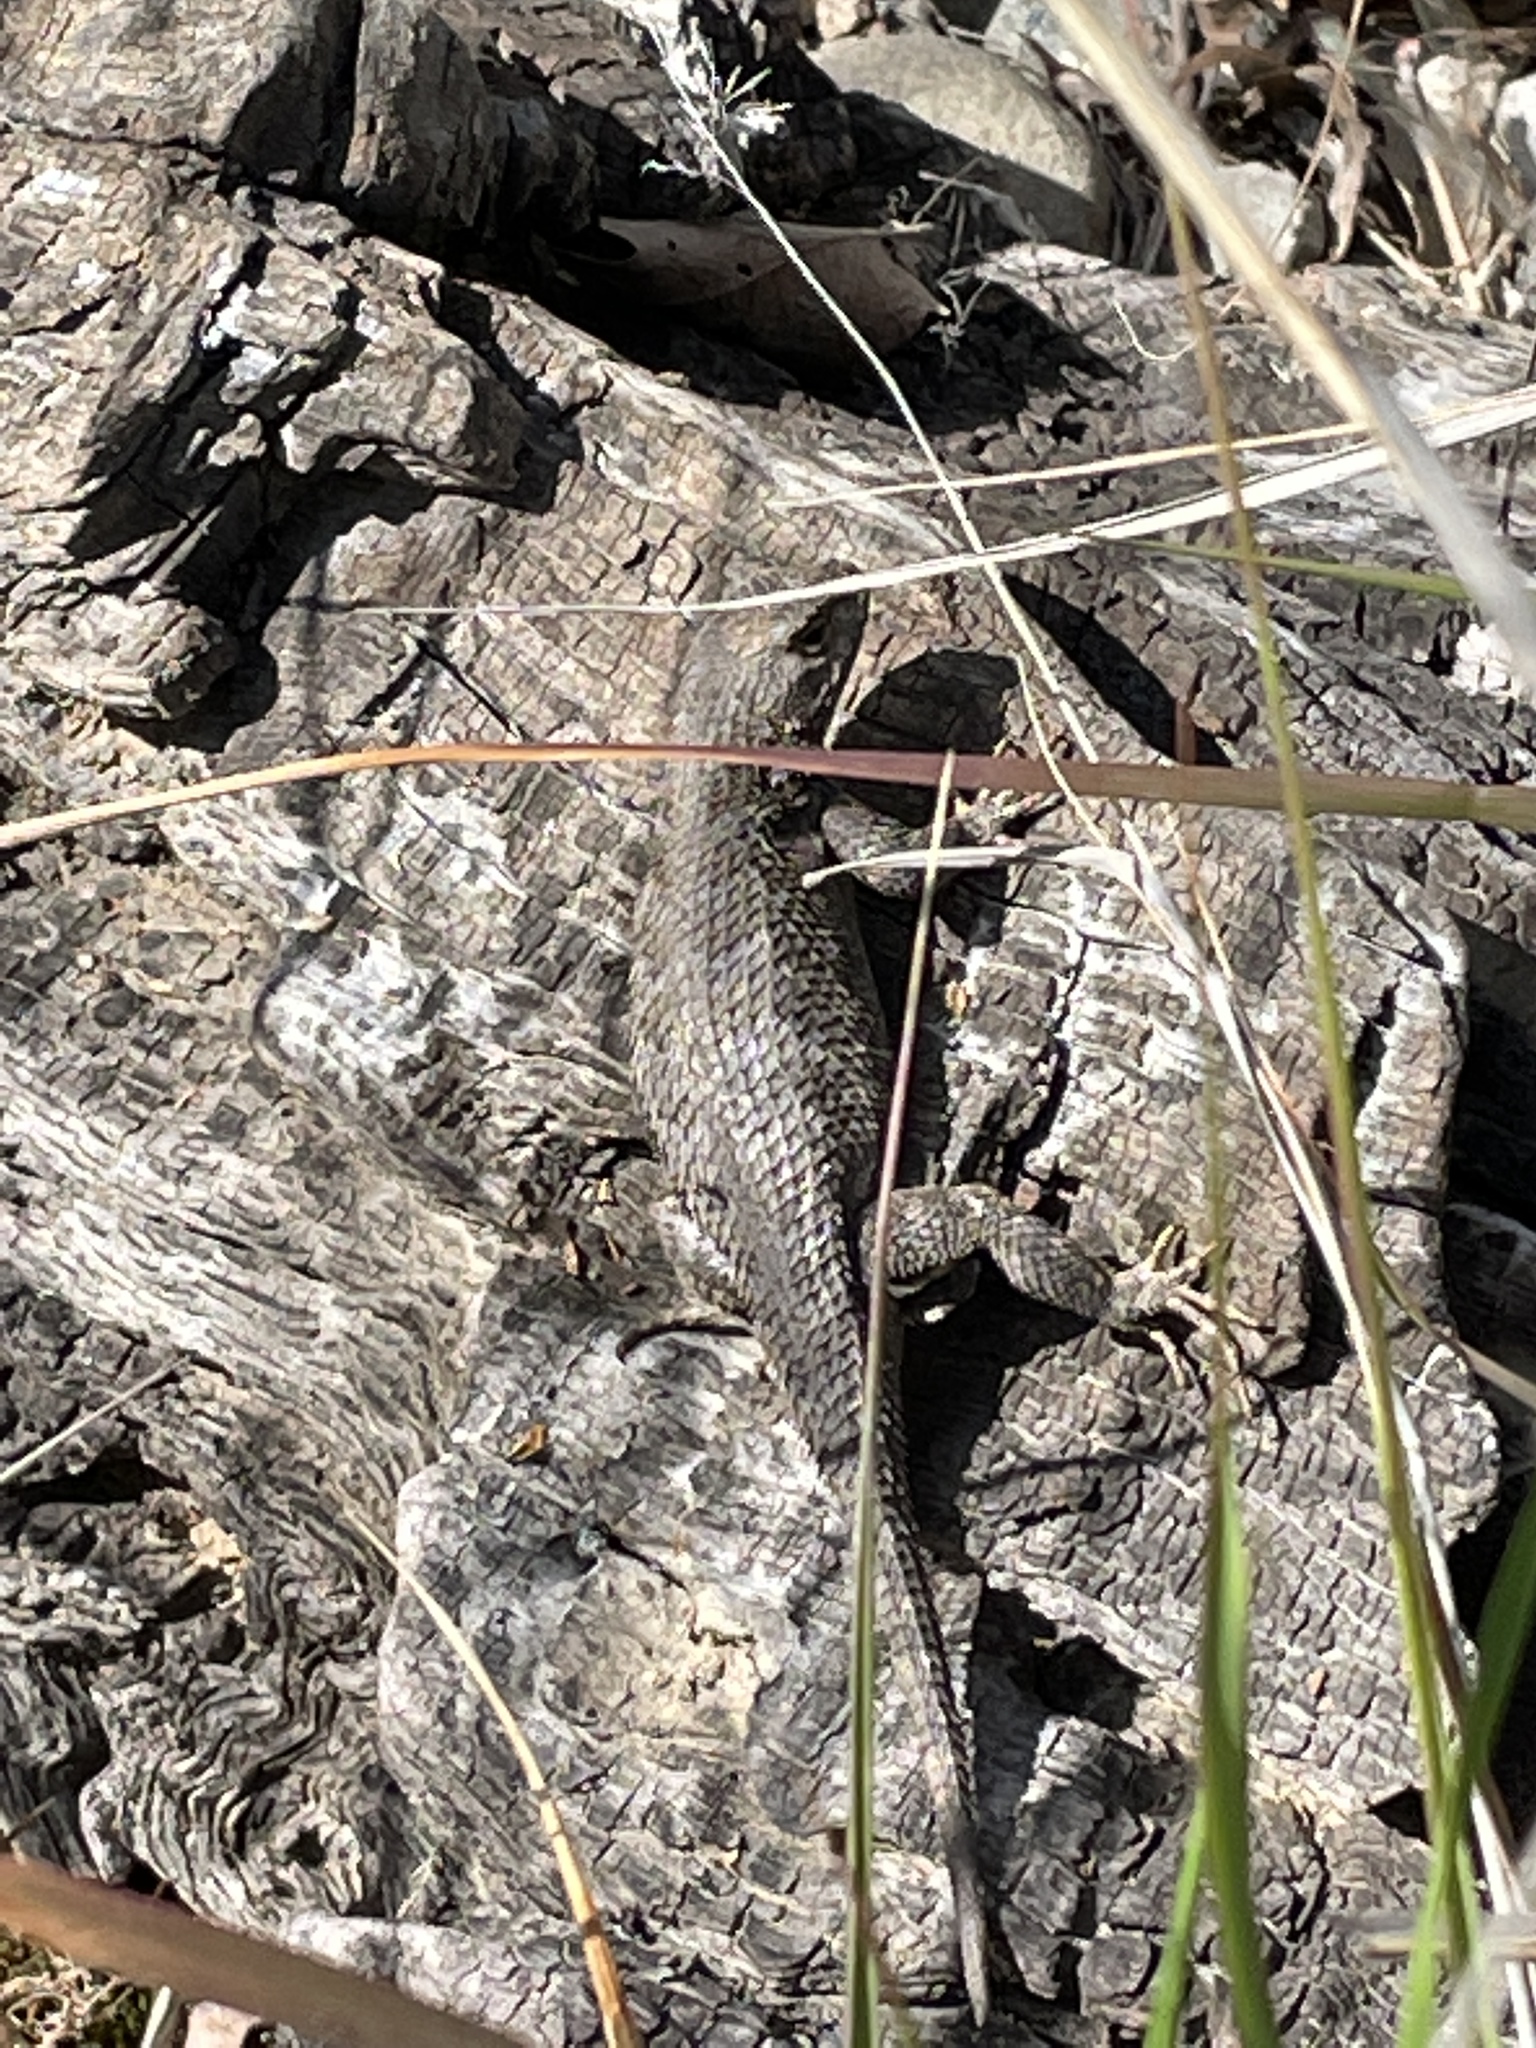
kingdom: Animalia
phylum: Chordata
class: Squamata
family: Phrynosomatidae
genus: Sceloporus
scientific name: Sceloporus occidentalis
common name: Western fence lizard
